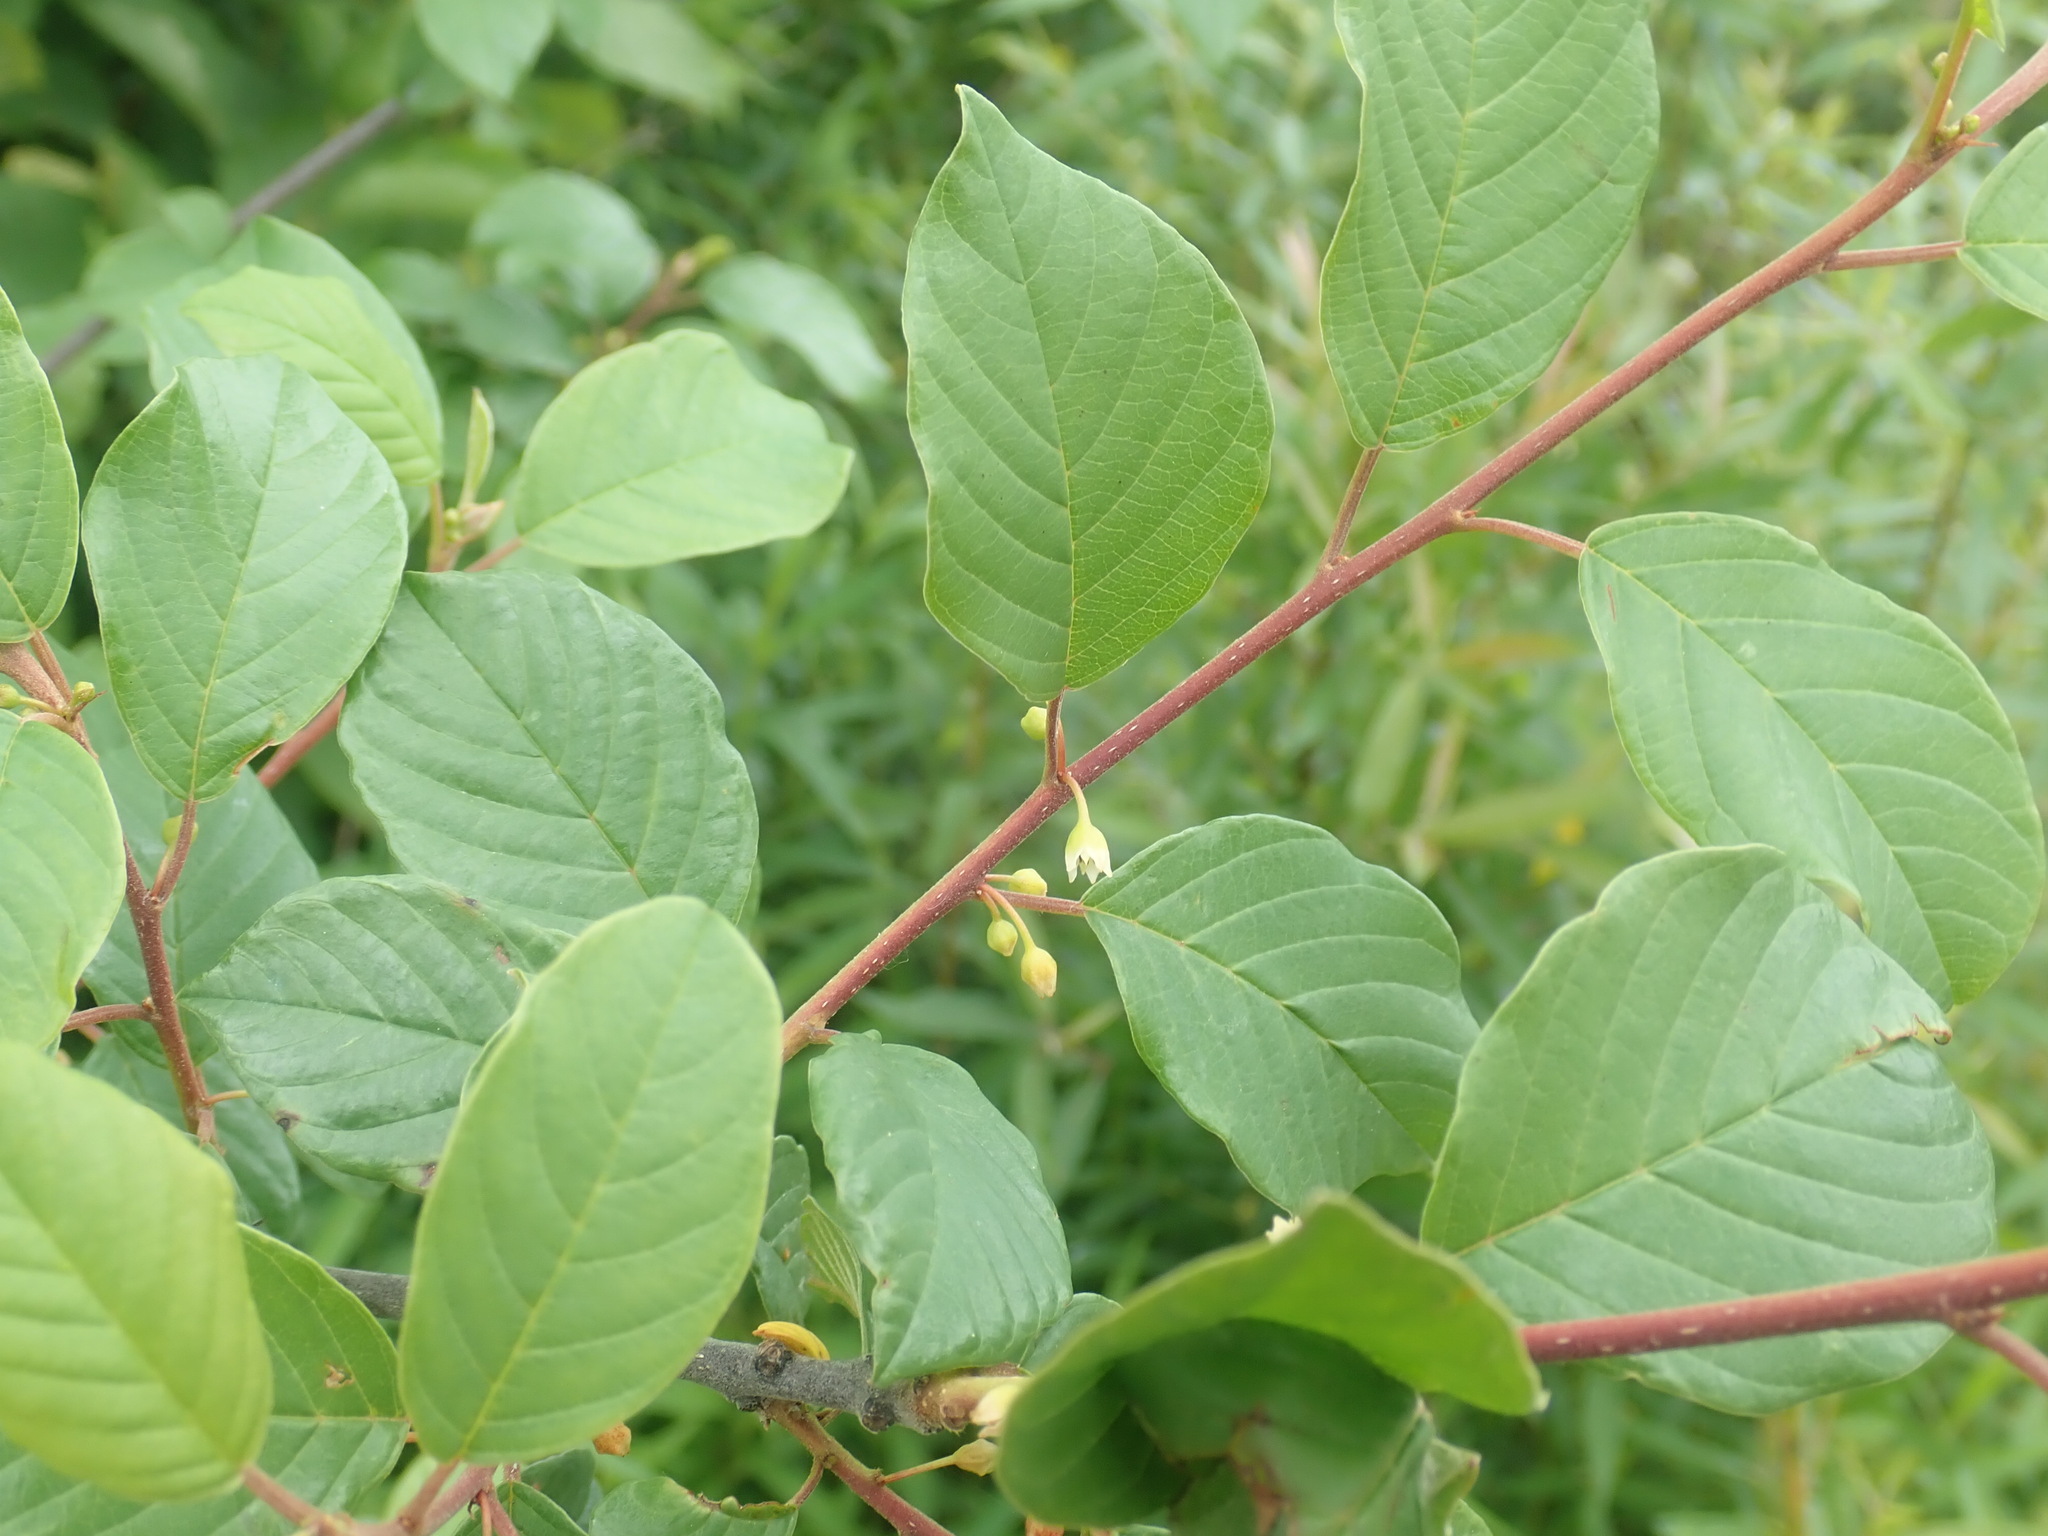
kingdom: Plantae
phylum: Tracheophyta
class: Magnoliopsida
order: Rosales
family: Rhamnaceae
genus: Frangula
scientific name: Frangula alnus
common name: Alder buckthorn
